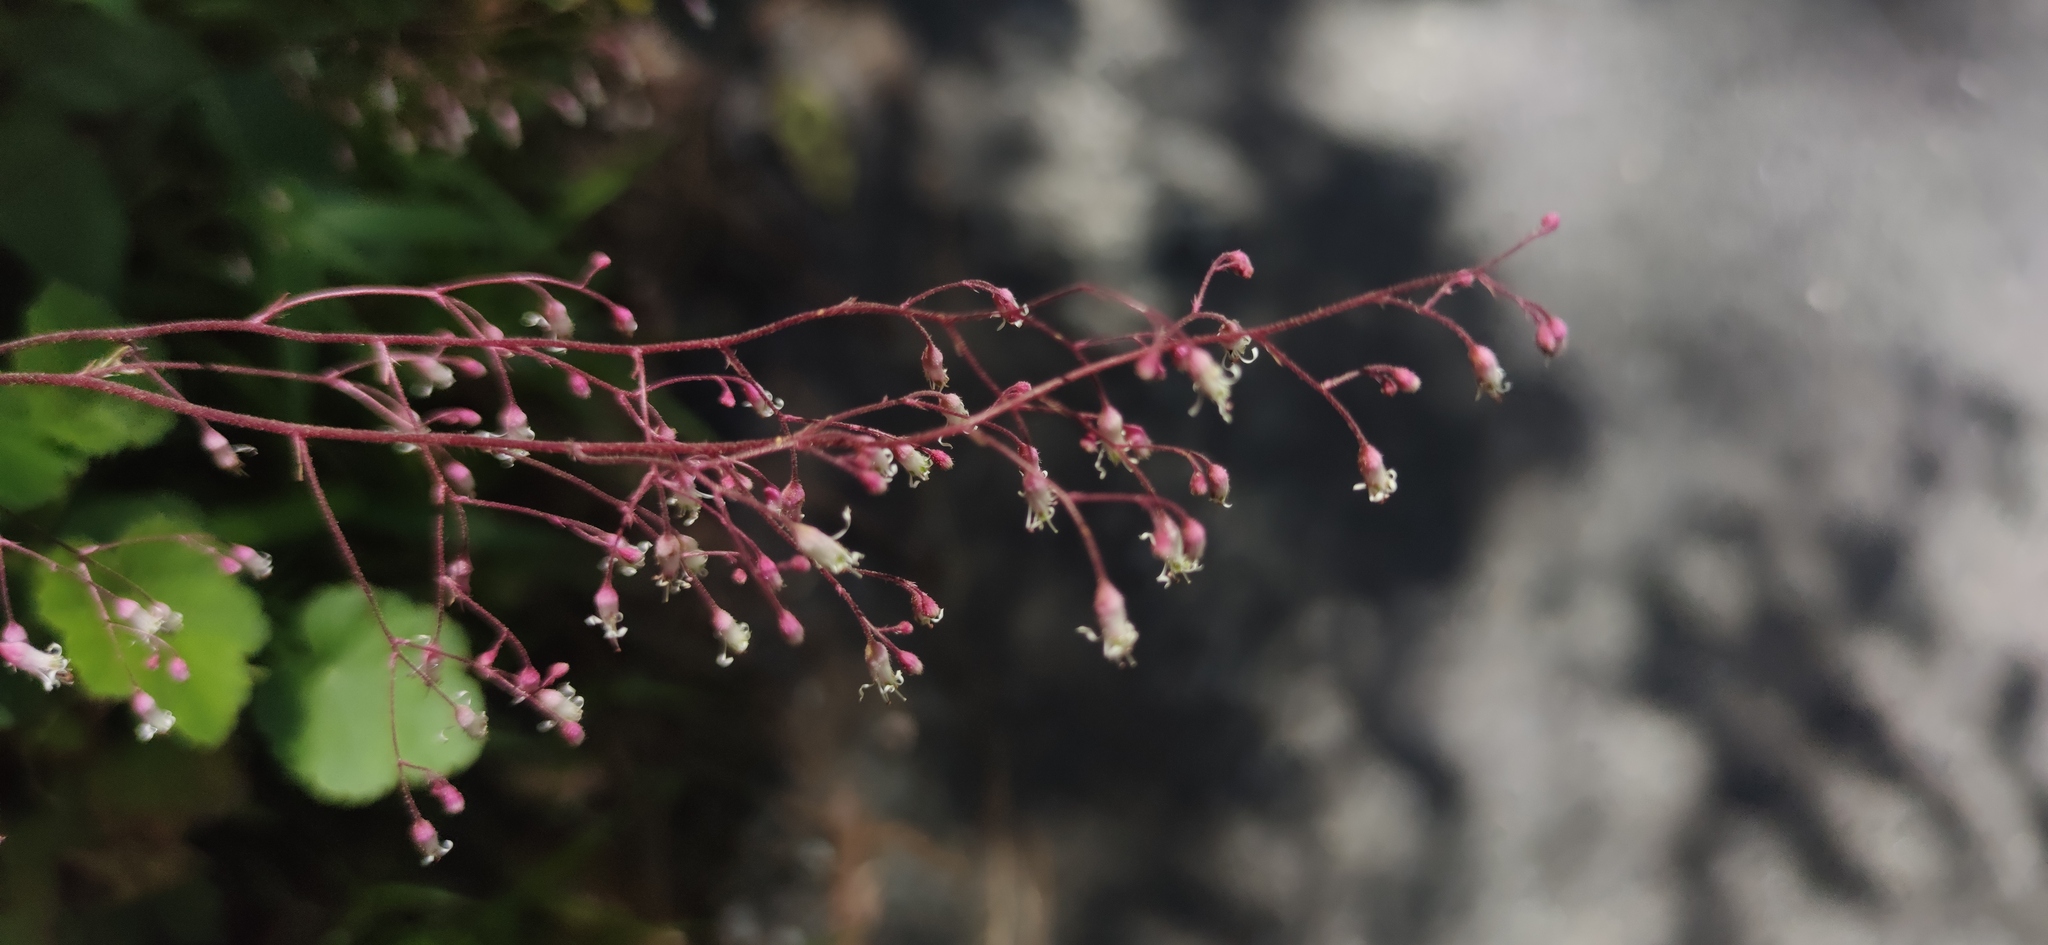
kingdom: Plantae
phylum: Tracheophyta
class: Lycopodiopsida
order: Selaginellales
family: Selaginellaceae
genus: Selaginella
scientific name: Selaginella pallescens
